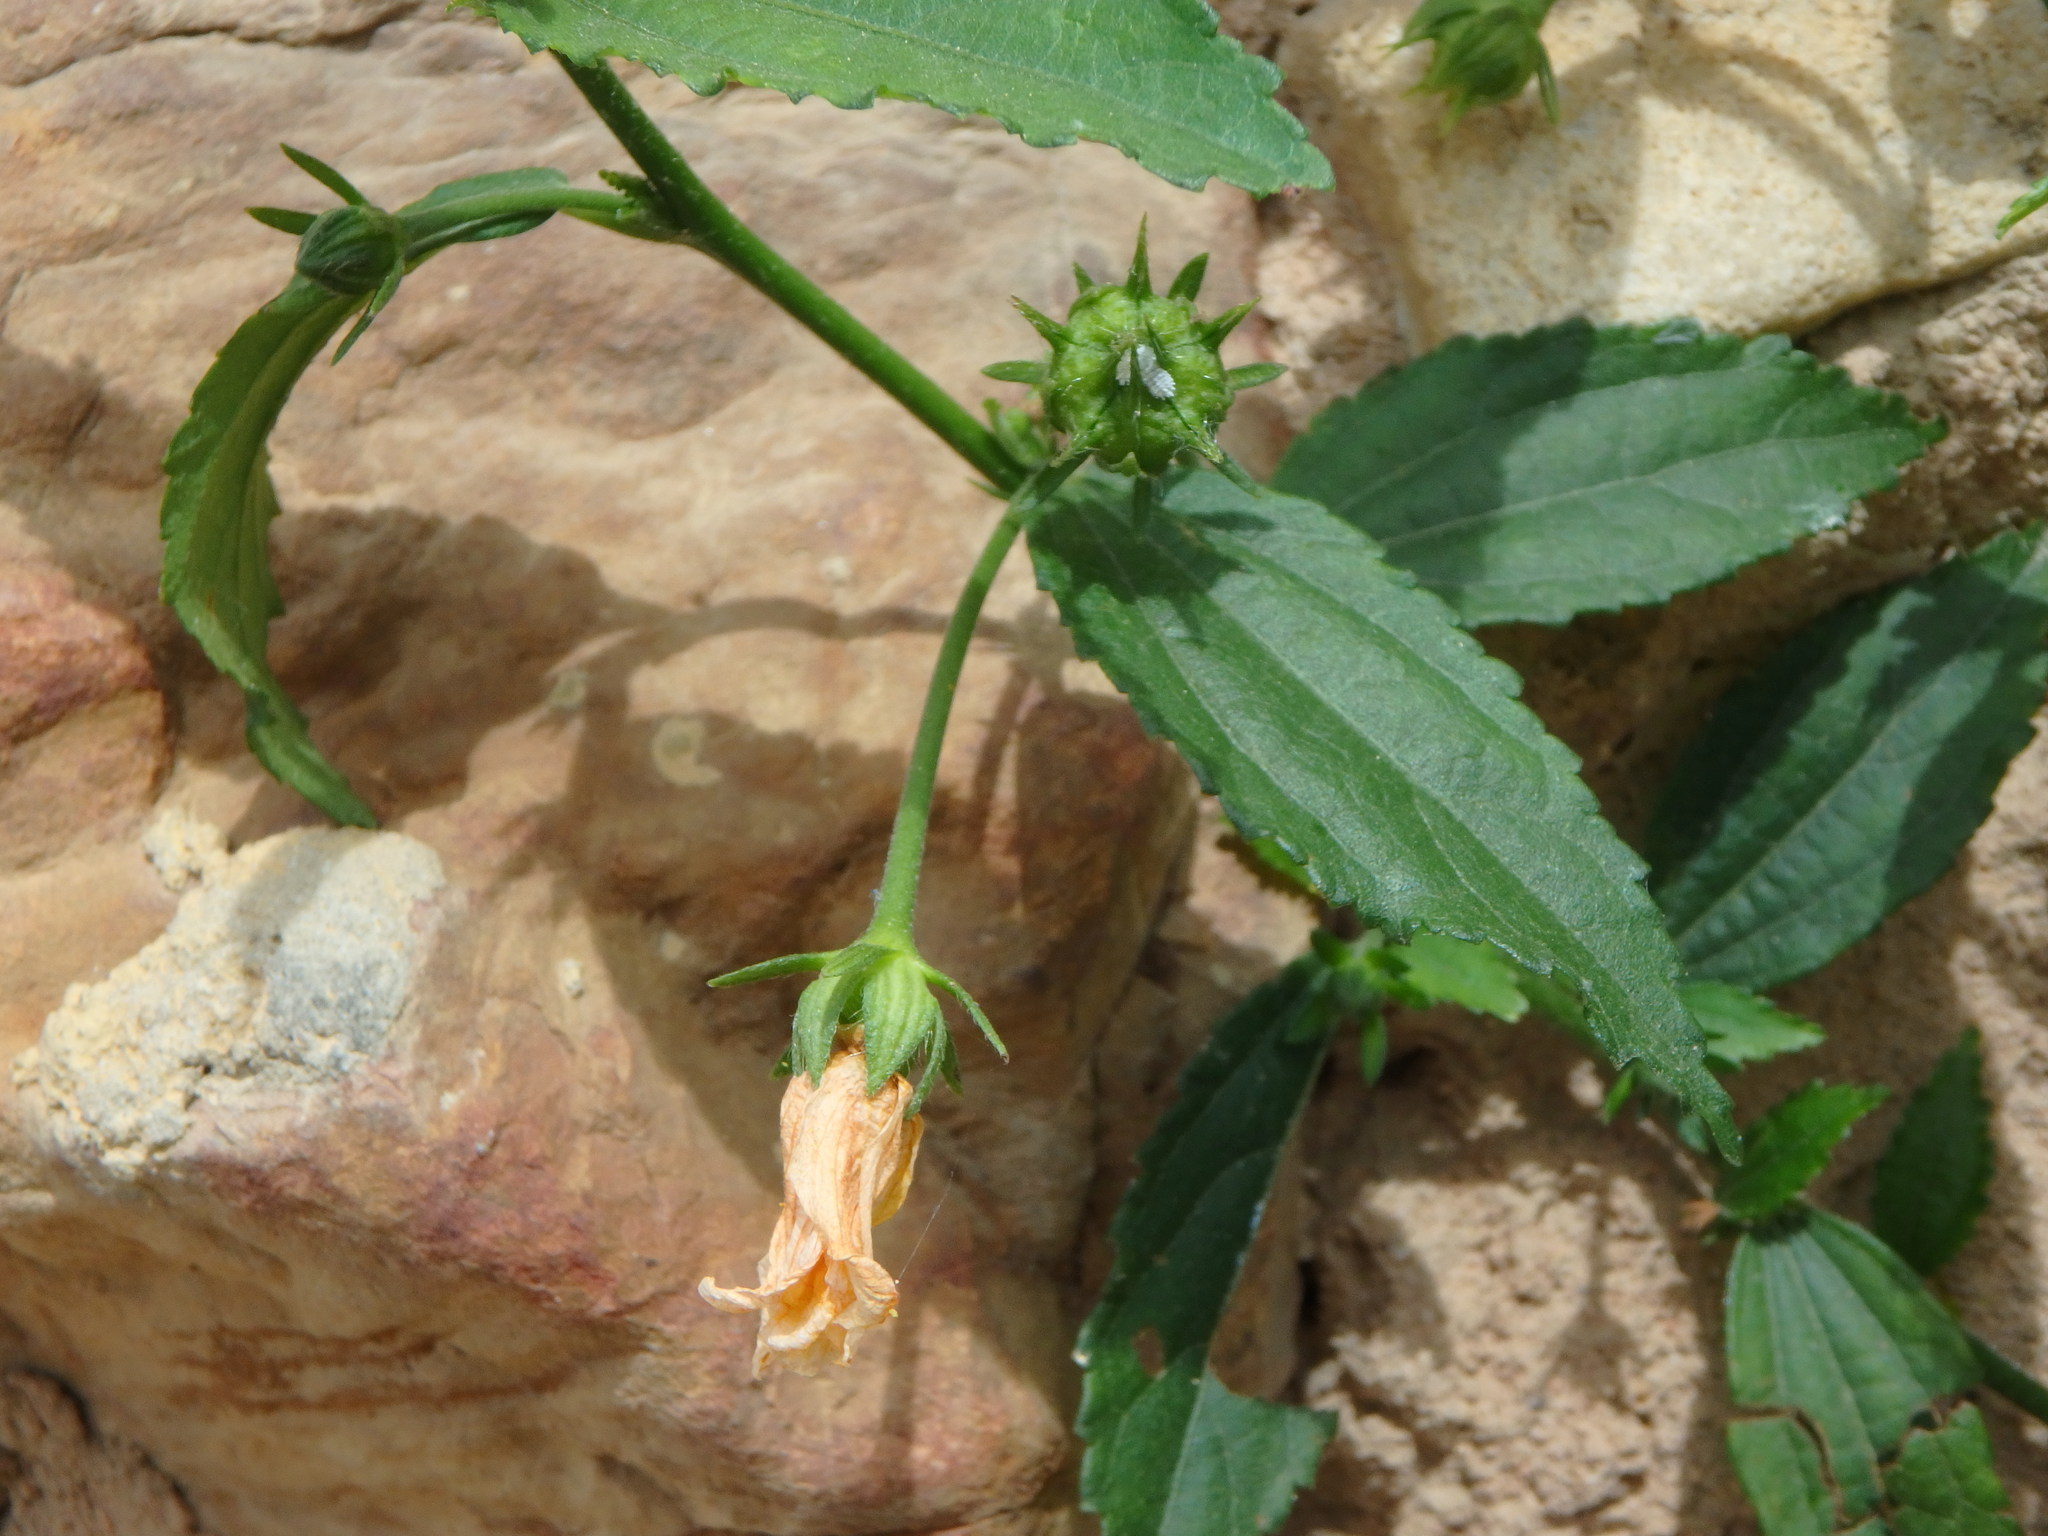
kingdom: Plantae
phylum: Tracheophyta
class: Magnoliopsida
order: Malvales
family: Malvaceae
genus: Pavonia
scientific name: Pavonia sepium
